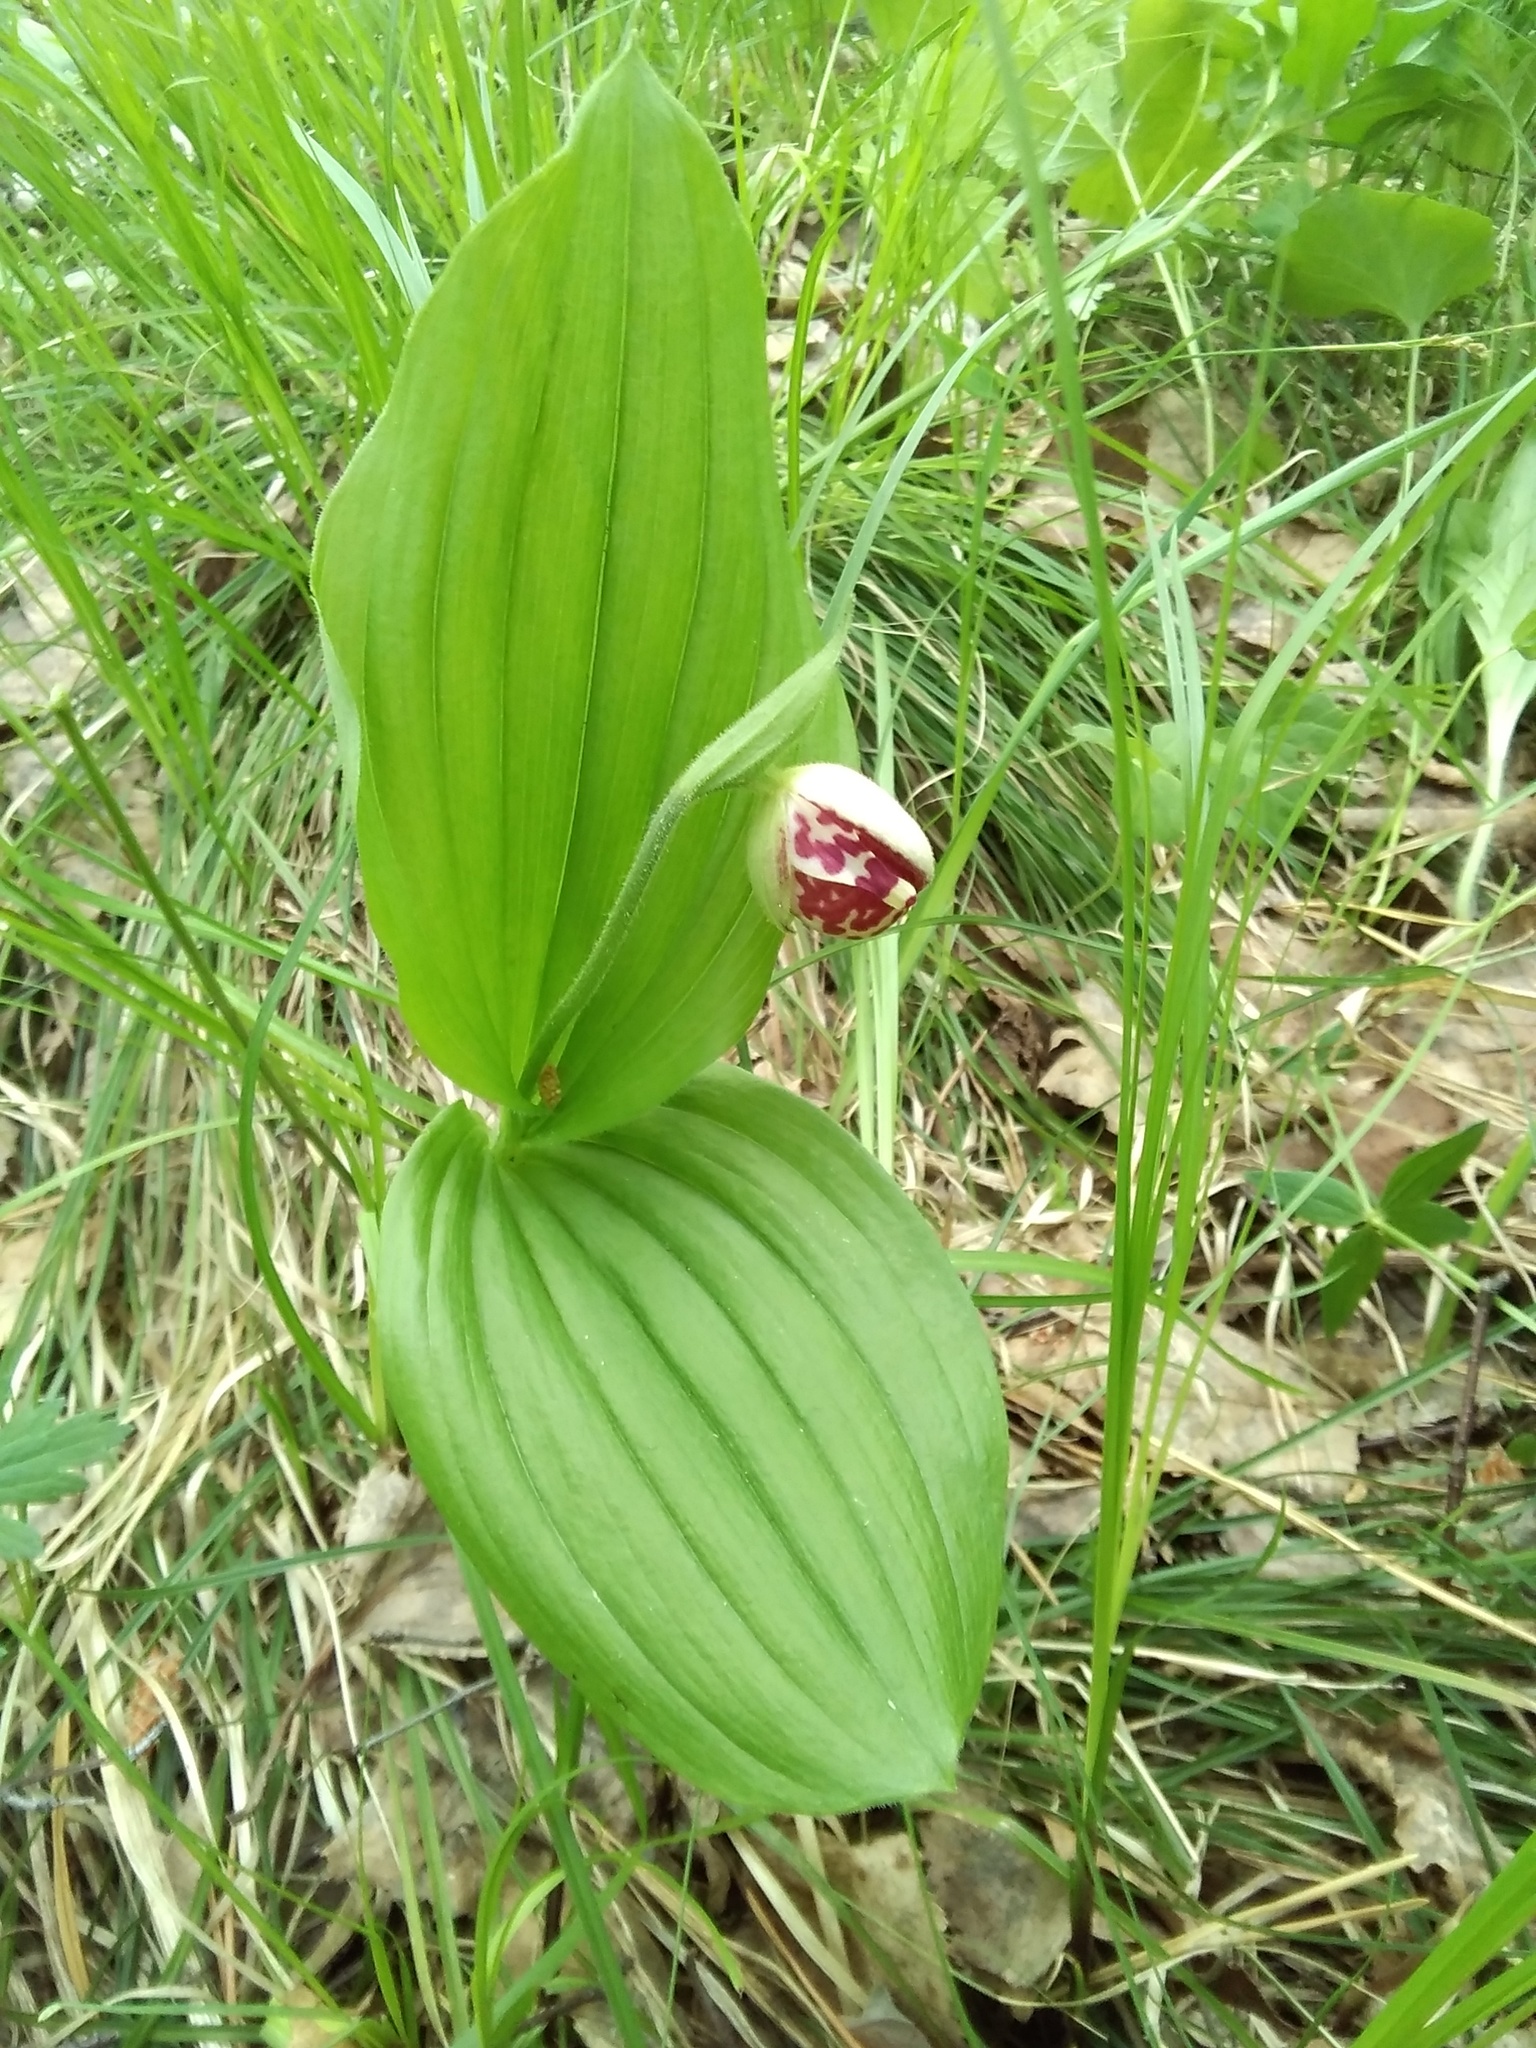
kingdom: Plantae
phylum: Tracheophyta
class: Liliopsida
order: Asparagales
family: Orchidaceae
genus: Cypripedium
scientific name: Cypripedium guttatum
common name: Pink lady slipper
